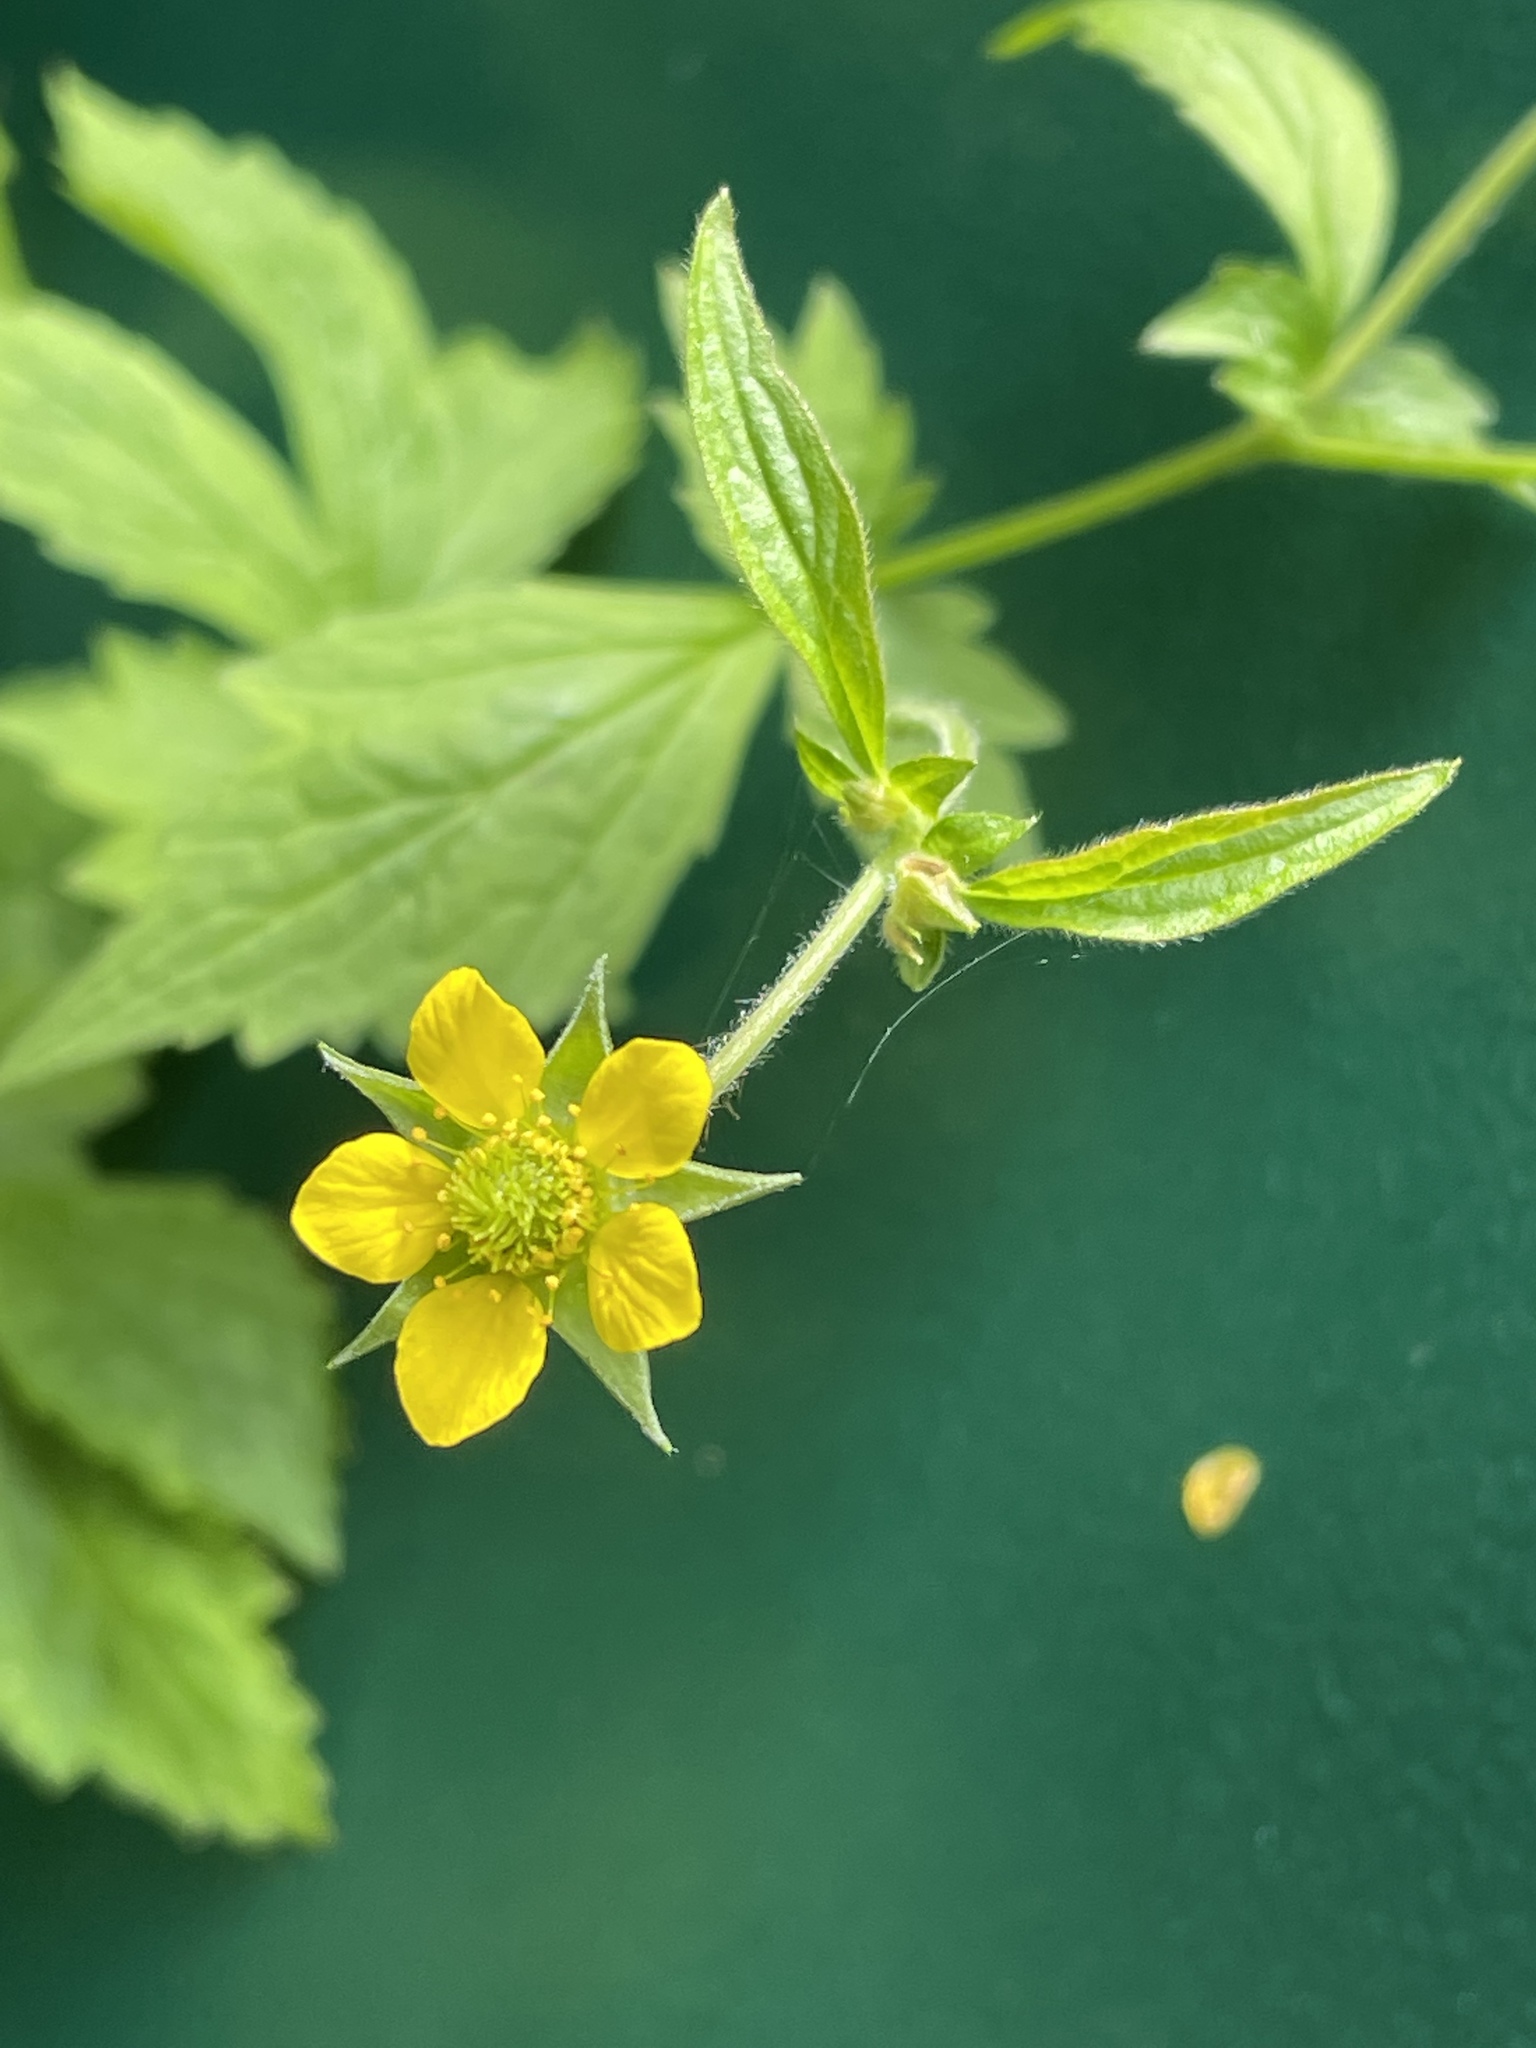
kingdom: Plantae
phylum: Tracheophyta
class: Magnoliopsida
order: Rosales
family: Rosaceae
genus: Geum
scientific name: Geum urbanum
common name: Wood avens
